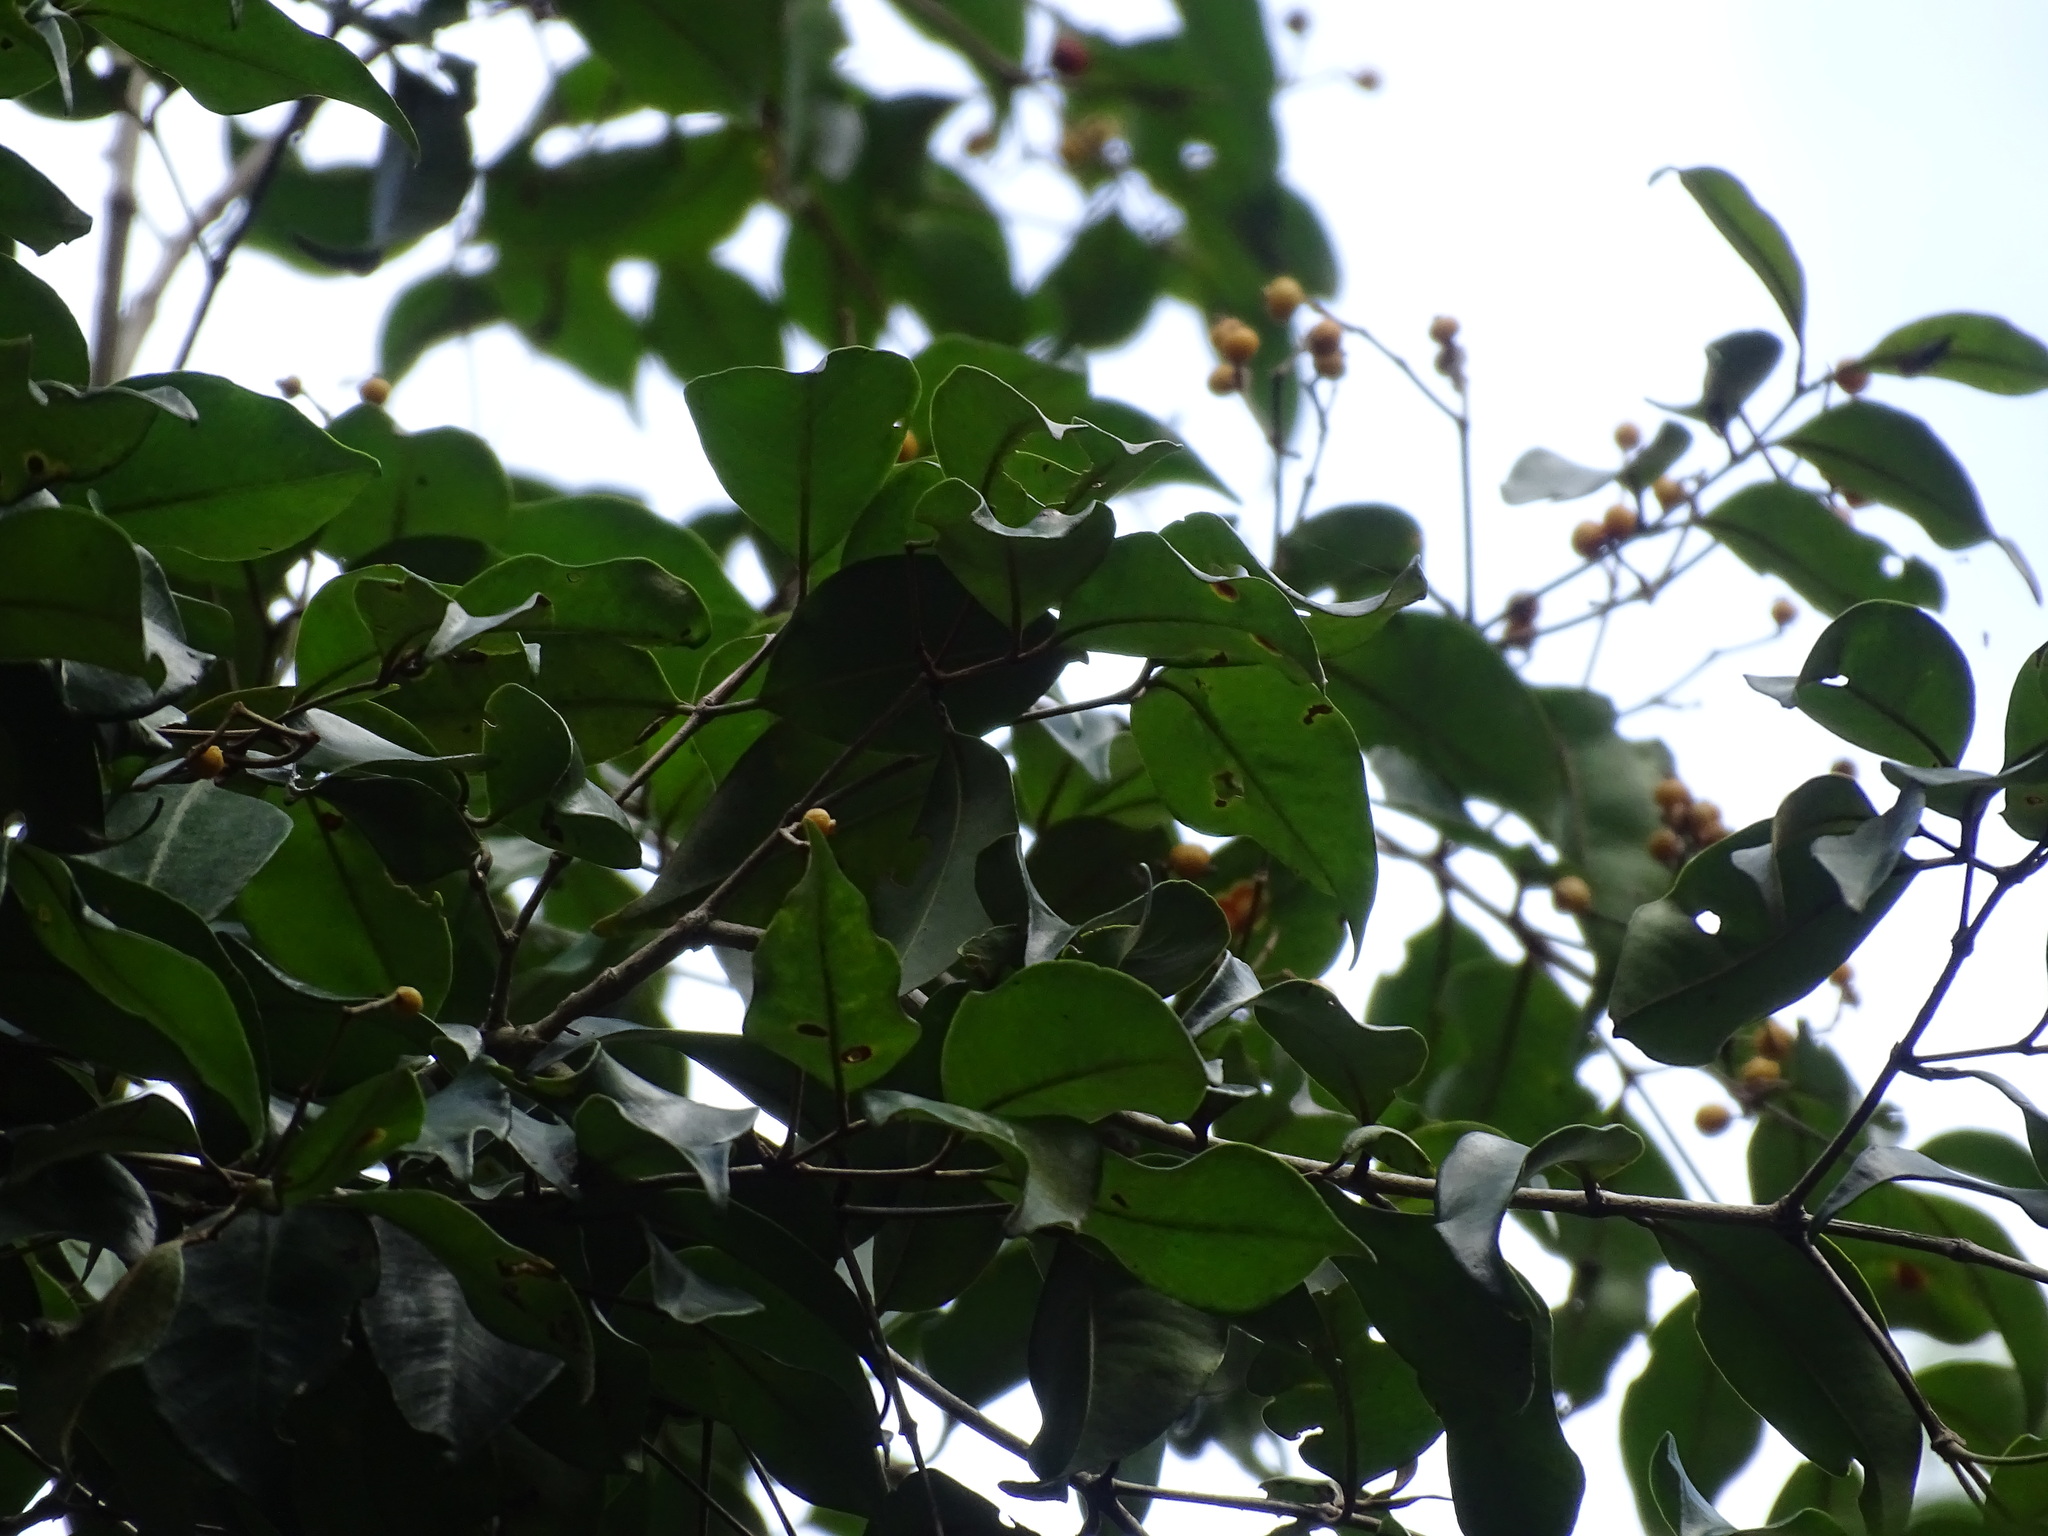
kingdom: Plantae
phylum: Tracheophyta
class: Magnoliopsida
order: Myrtales
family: Myrtaceae
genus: Myrcia
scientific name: Myrcia chytraculia
